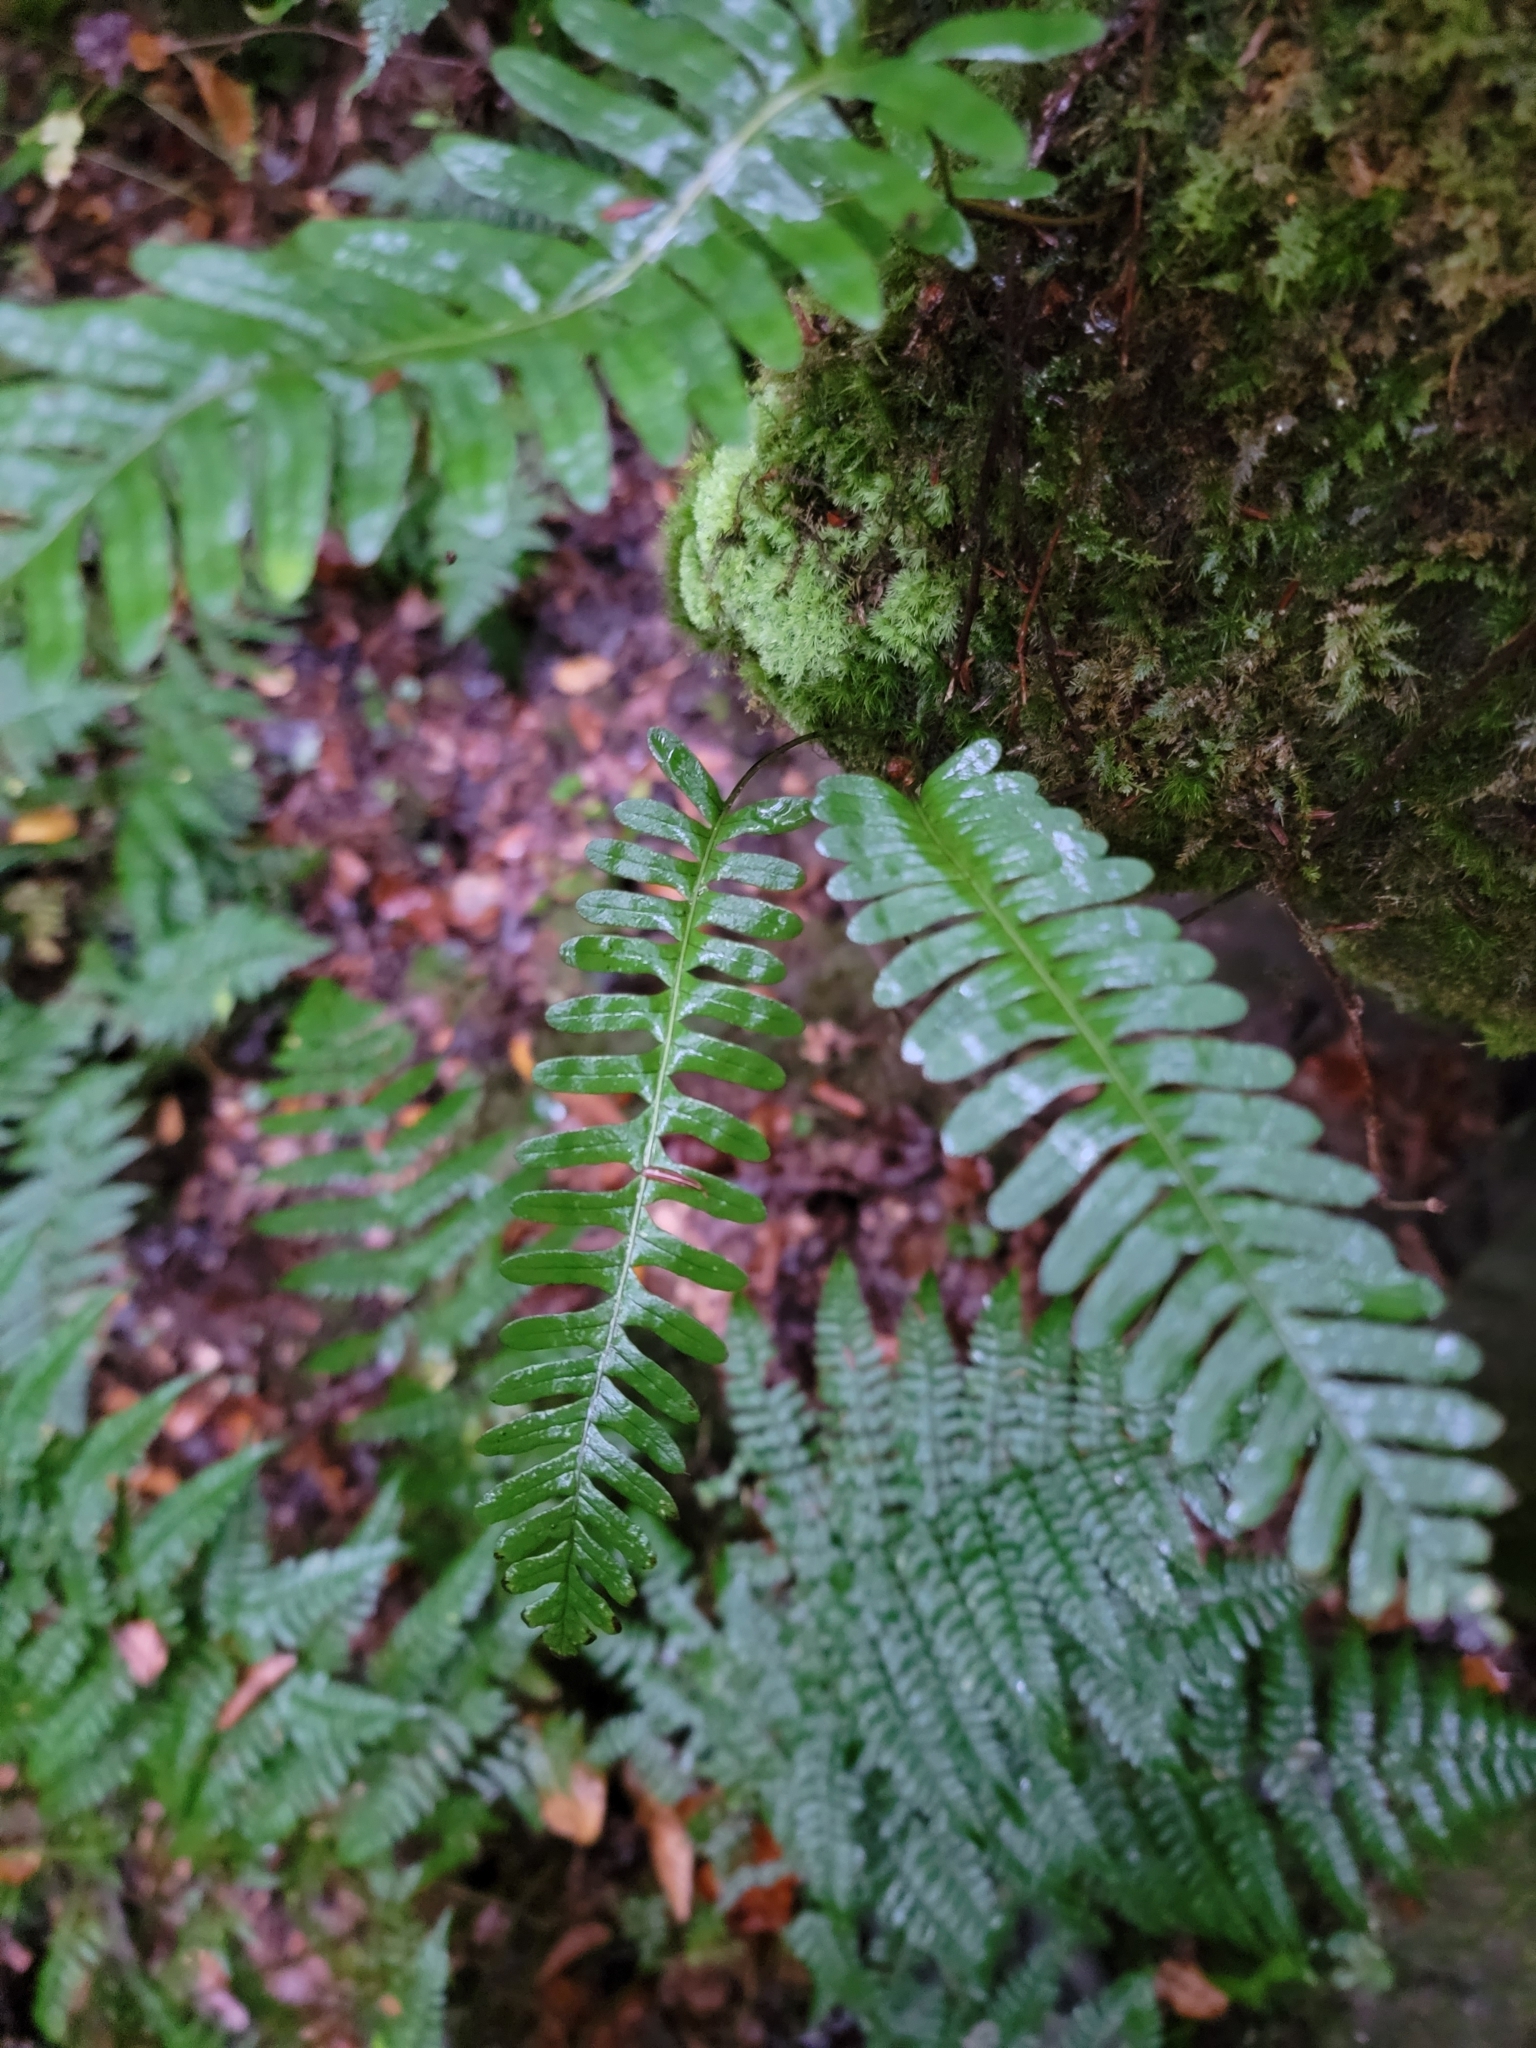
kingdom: Plantae
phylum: Tracheophyta
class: Polypodiopsida
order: Polypodiales
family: Polypodiaceae
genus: Polypodium
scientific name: Polypodium virginianum
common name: American wall fern
